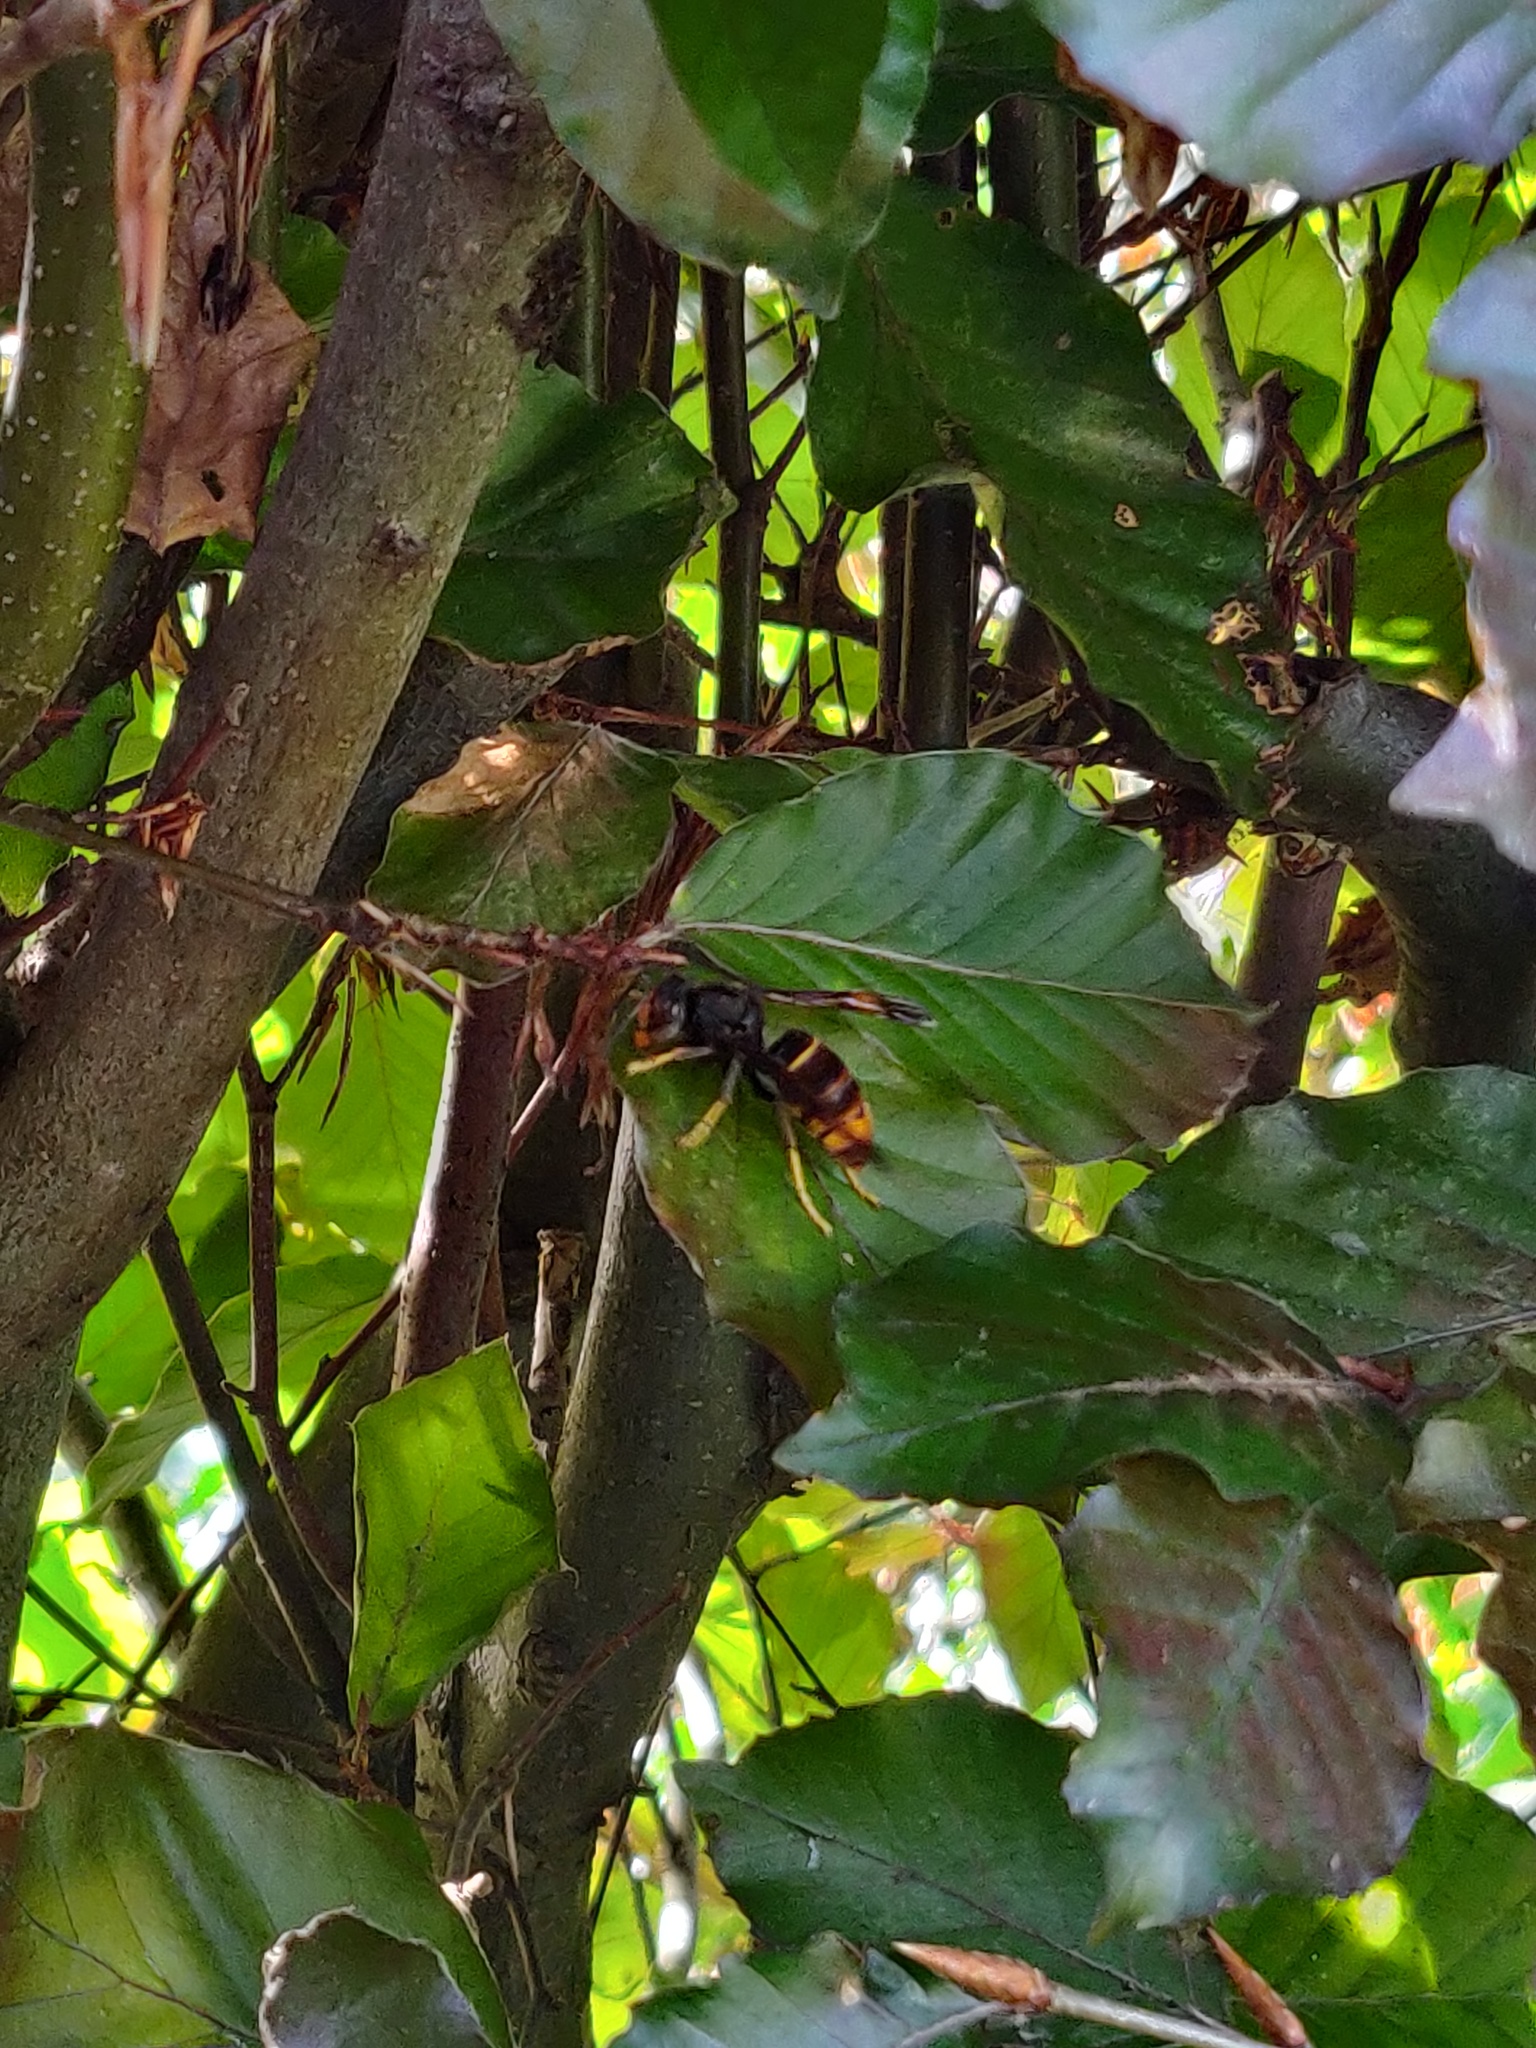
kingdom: Animalia
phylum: Arthropoda
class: Insecta
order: Hymenoptera
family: Vespidae
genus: Vespa
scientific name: Vespa velutina
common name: Asian hornet
